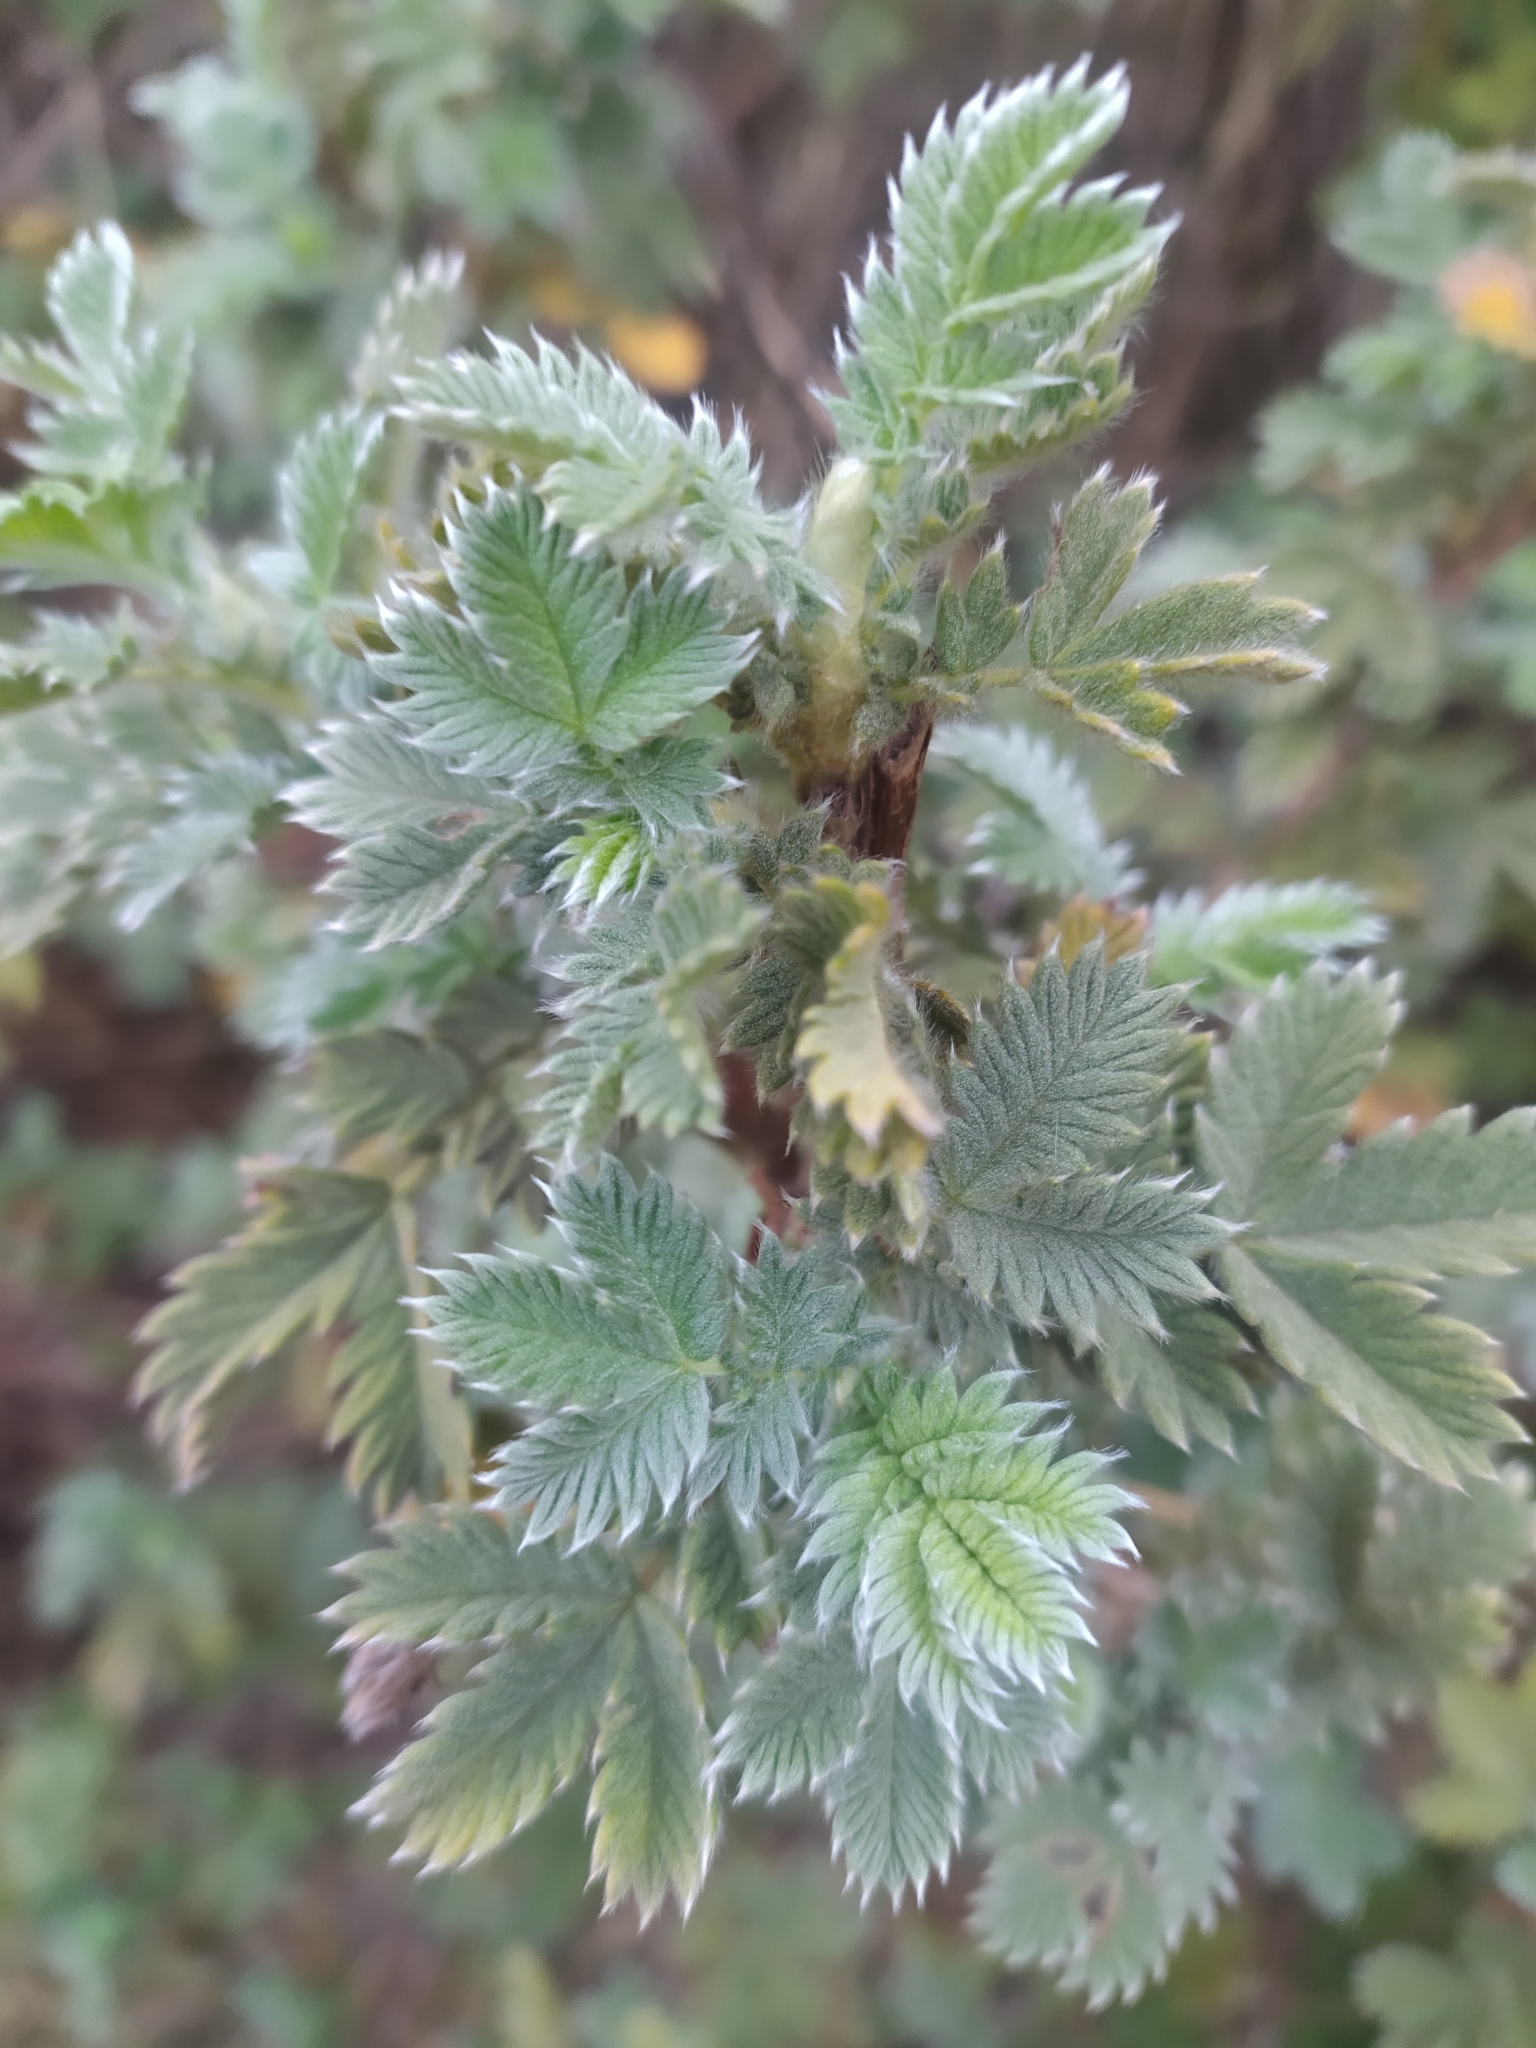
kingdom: Plantae
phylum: Tracheophyta
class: Magnoliopsida
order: Rosales
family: Rosaceae
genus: Leucosidea
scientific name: Leucosidea sericea
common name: Oldwood
